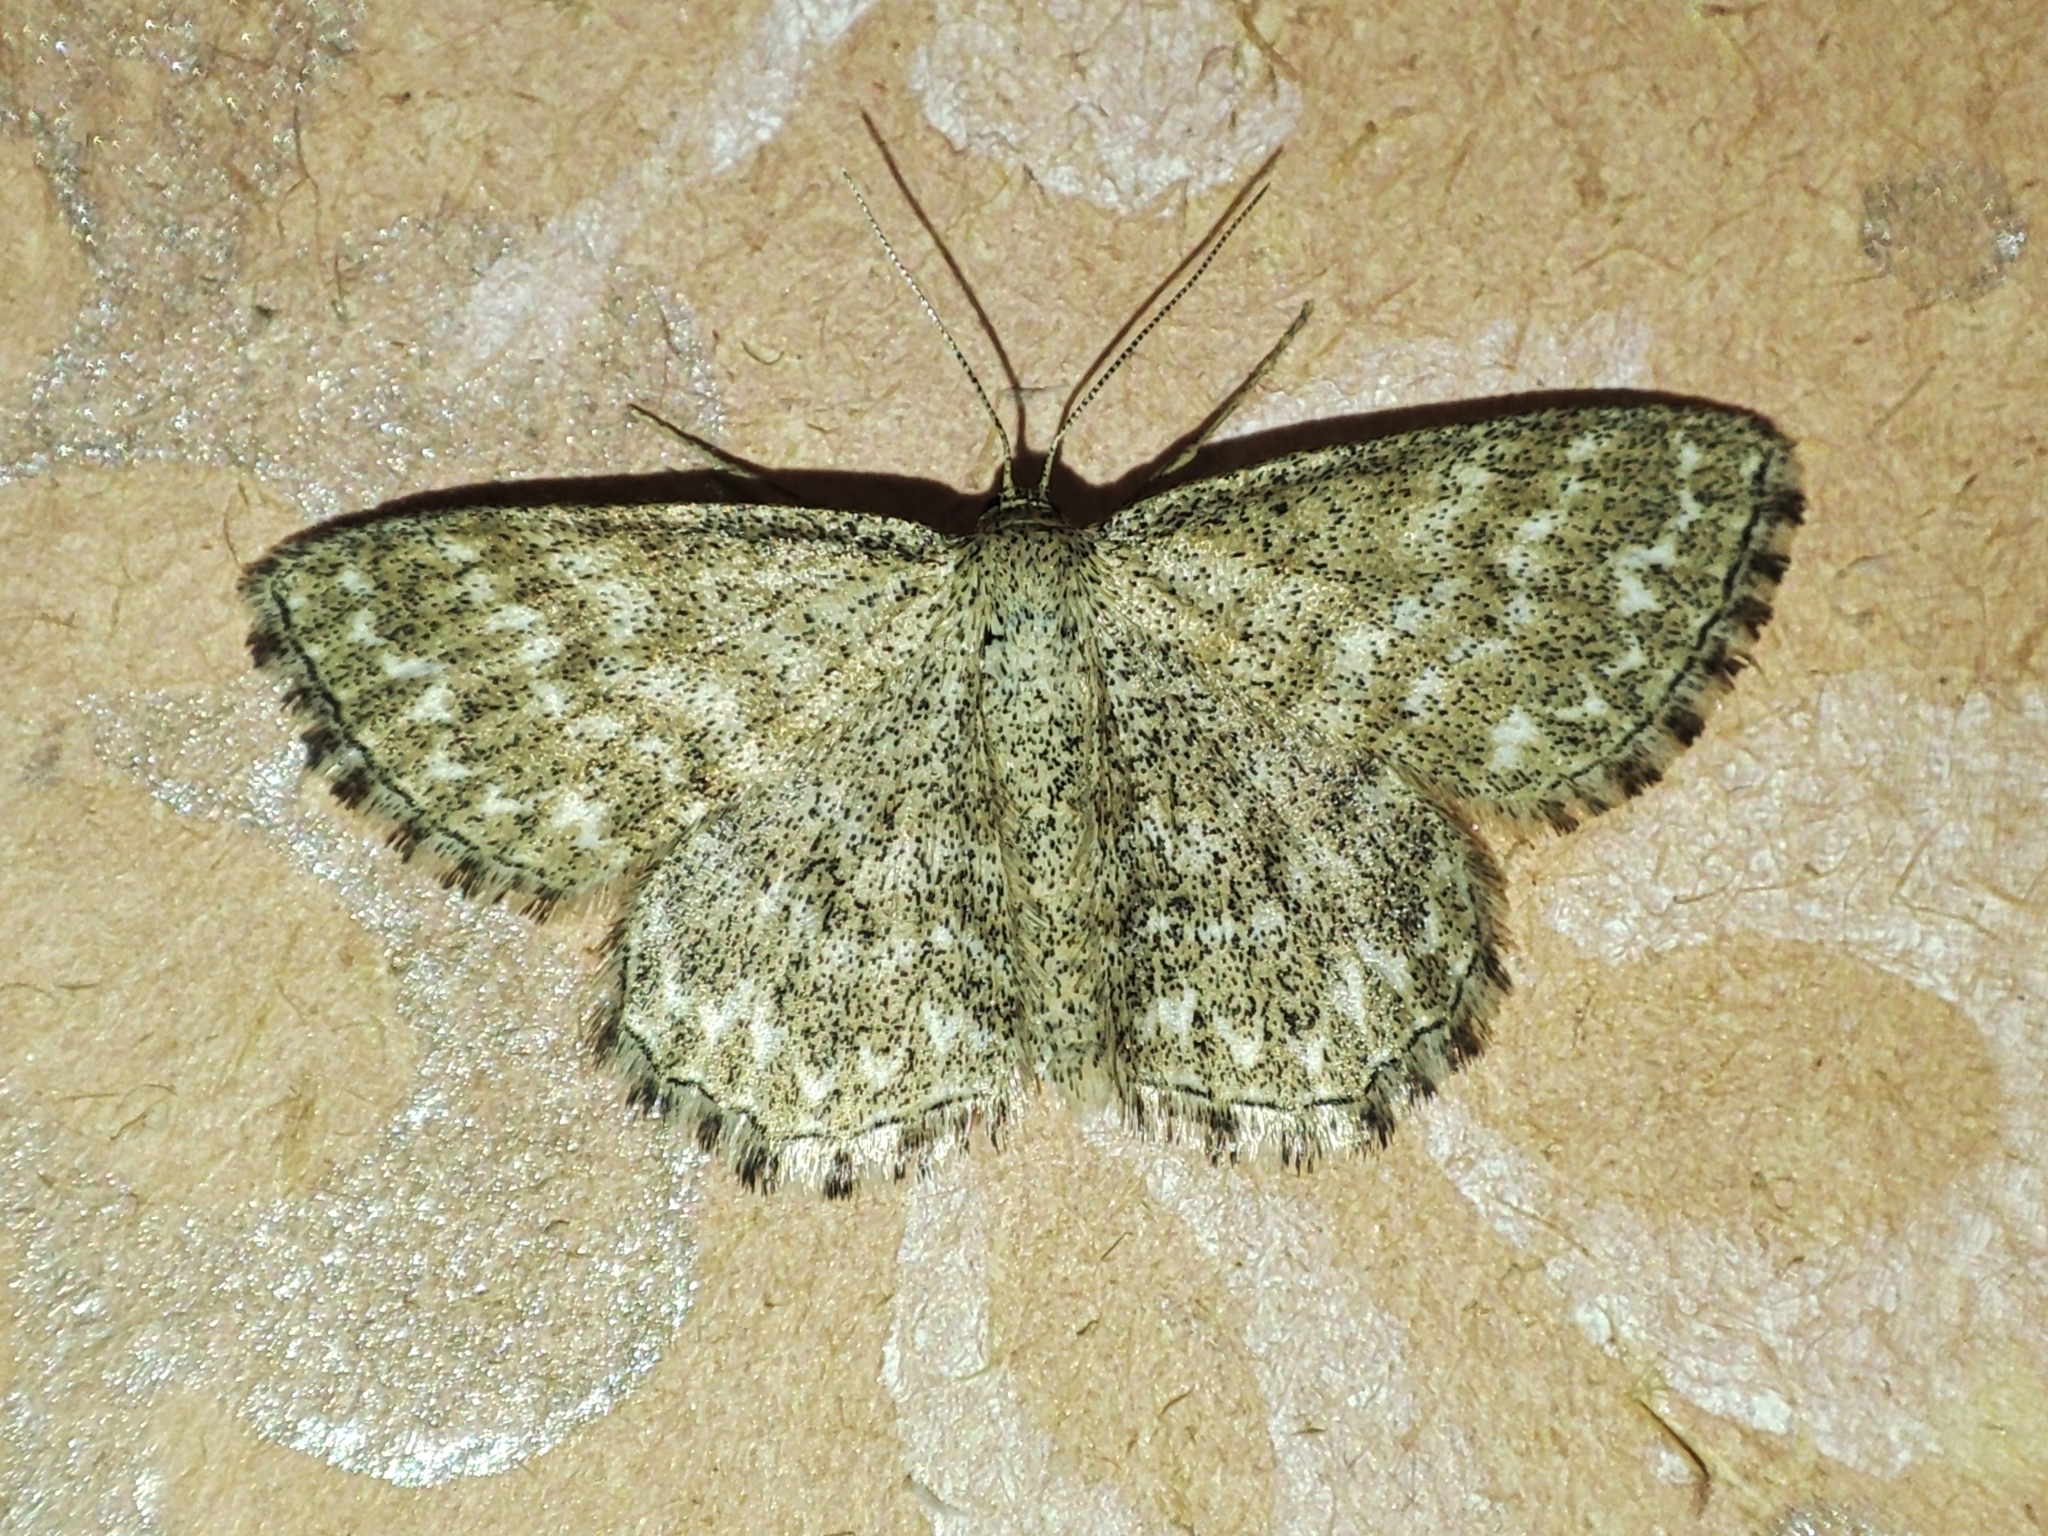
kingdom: Animalia
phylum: Arthropoda
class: Insecta
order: Lepidoptera
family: Geometridae
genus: Scopula
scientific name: Scopula immorata
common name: Lewes wave
